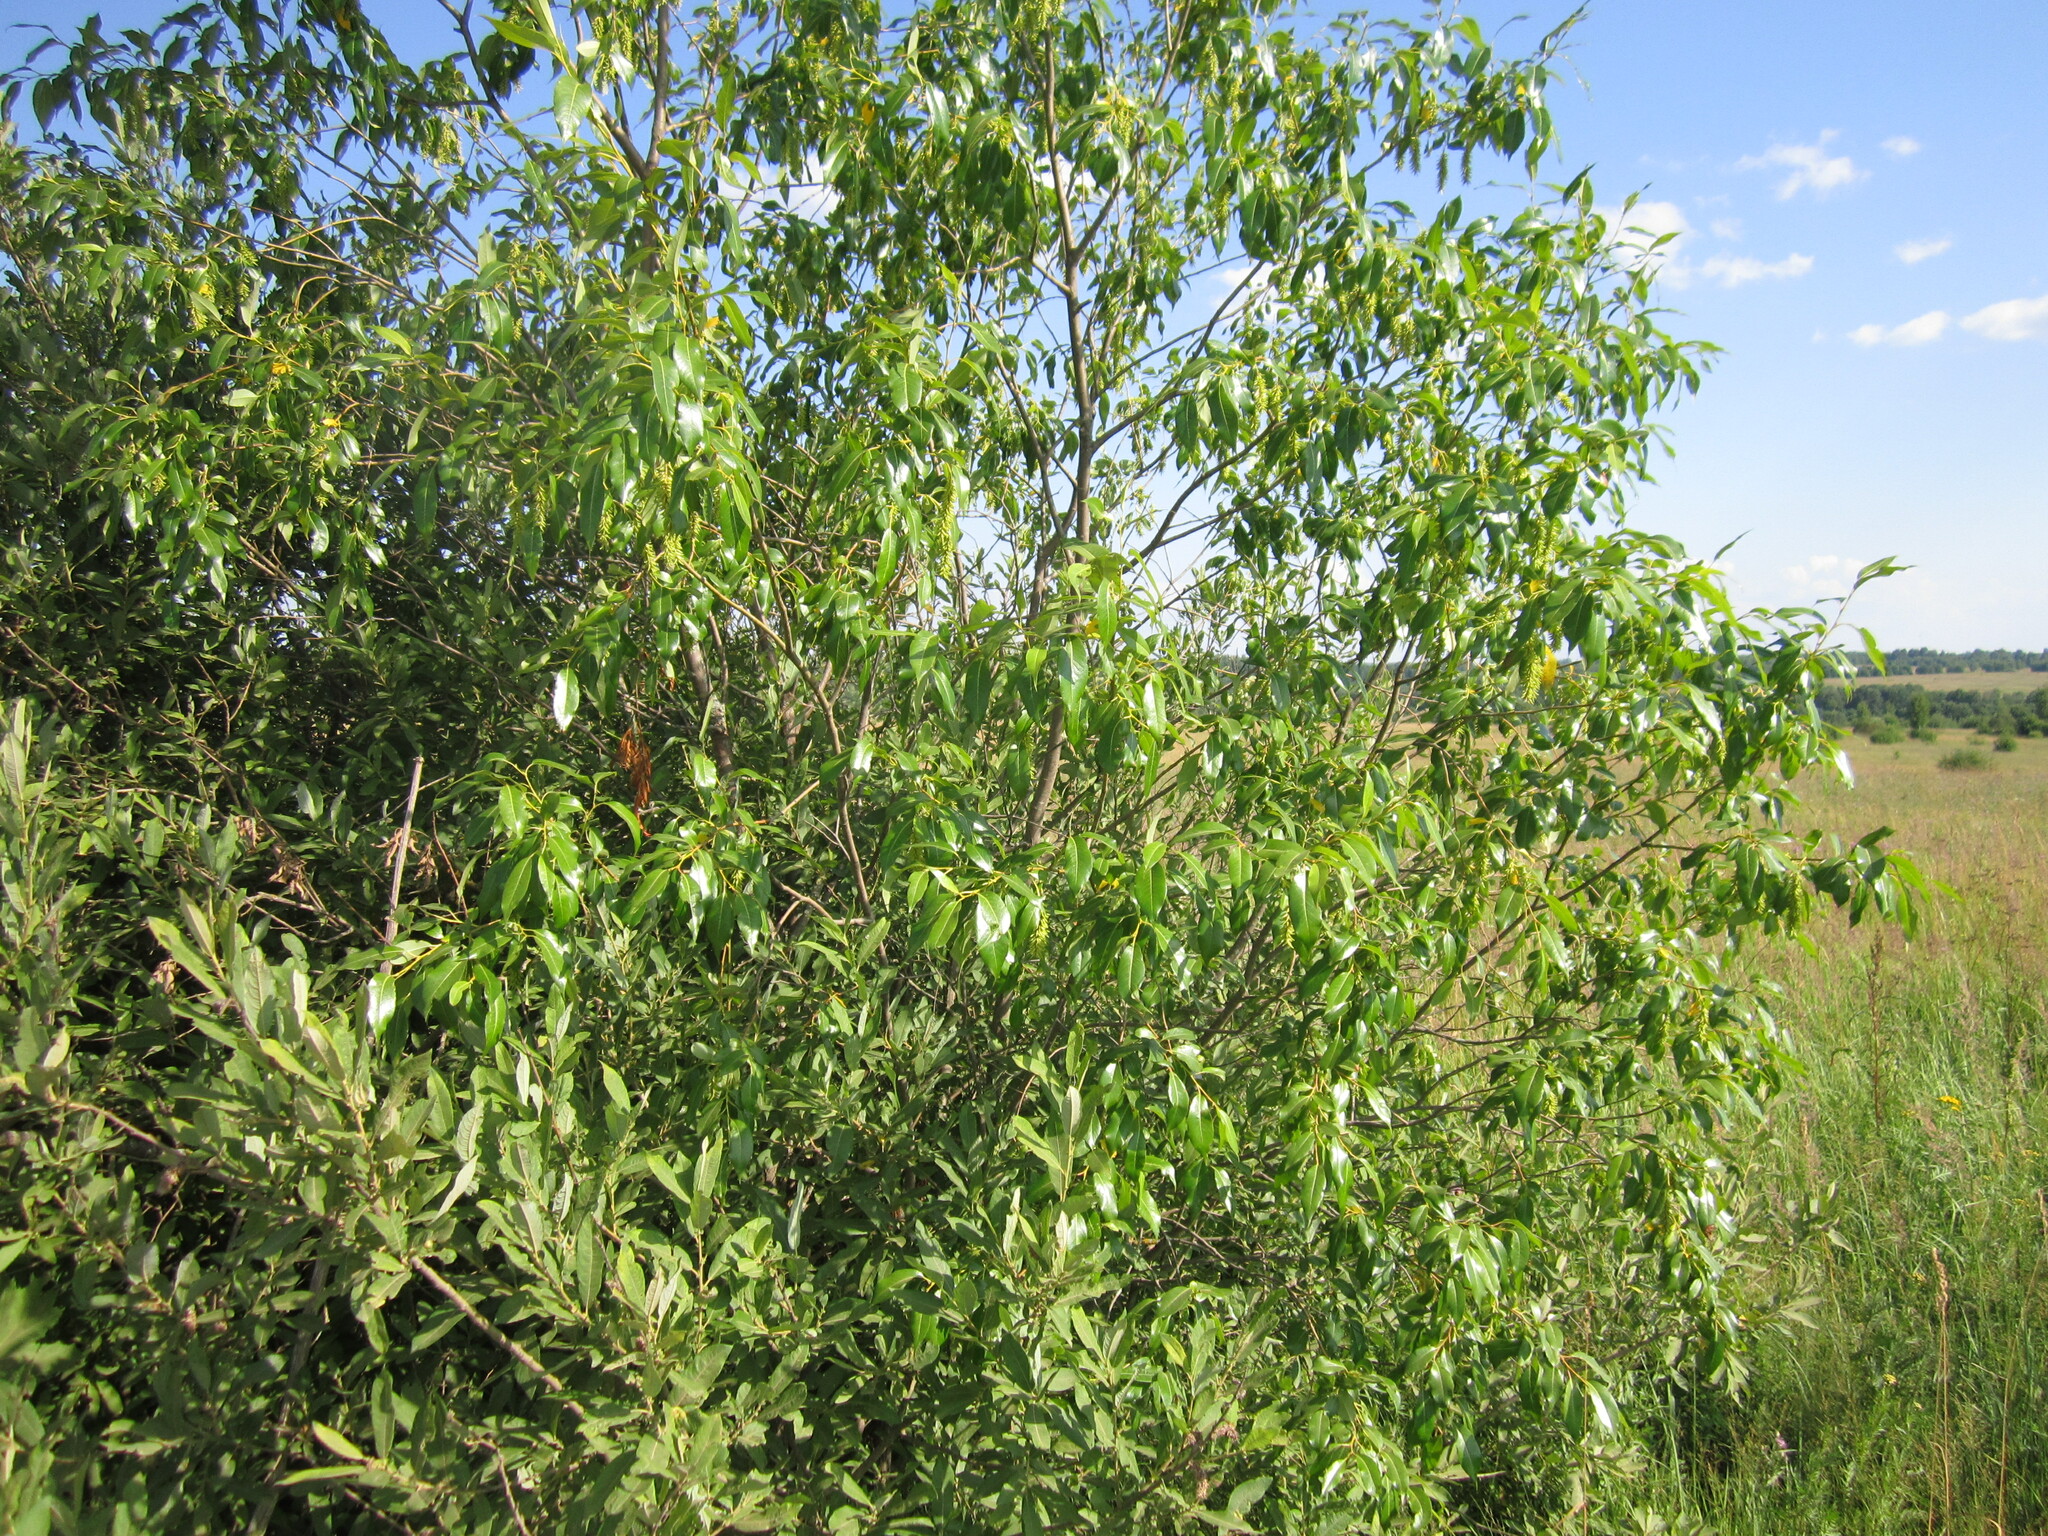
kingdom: Plantae
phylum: Tracheophyta
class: Magnoliopsida
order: Malpighiales
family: Salicaceae
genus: Salix
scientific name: Salix pentandra
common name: Bay willow
